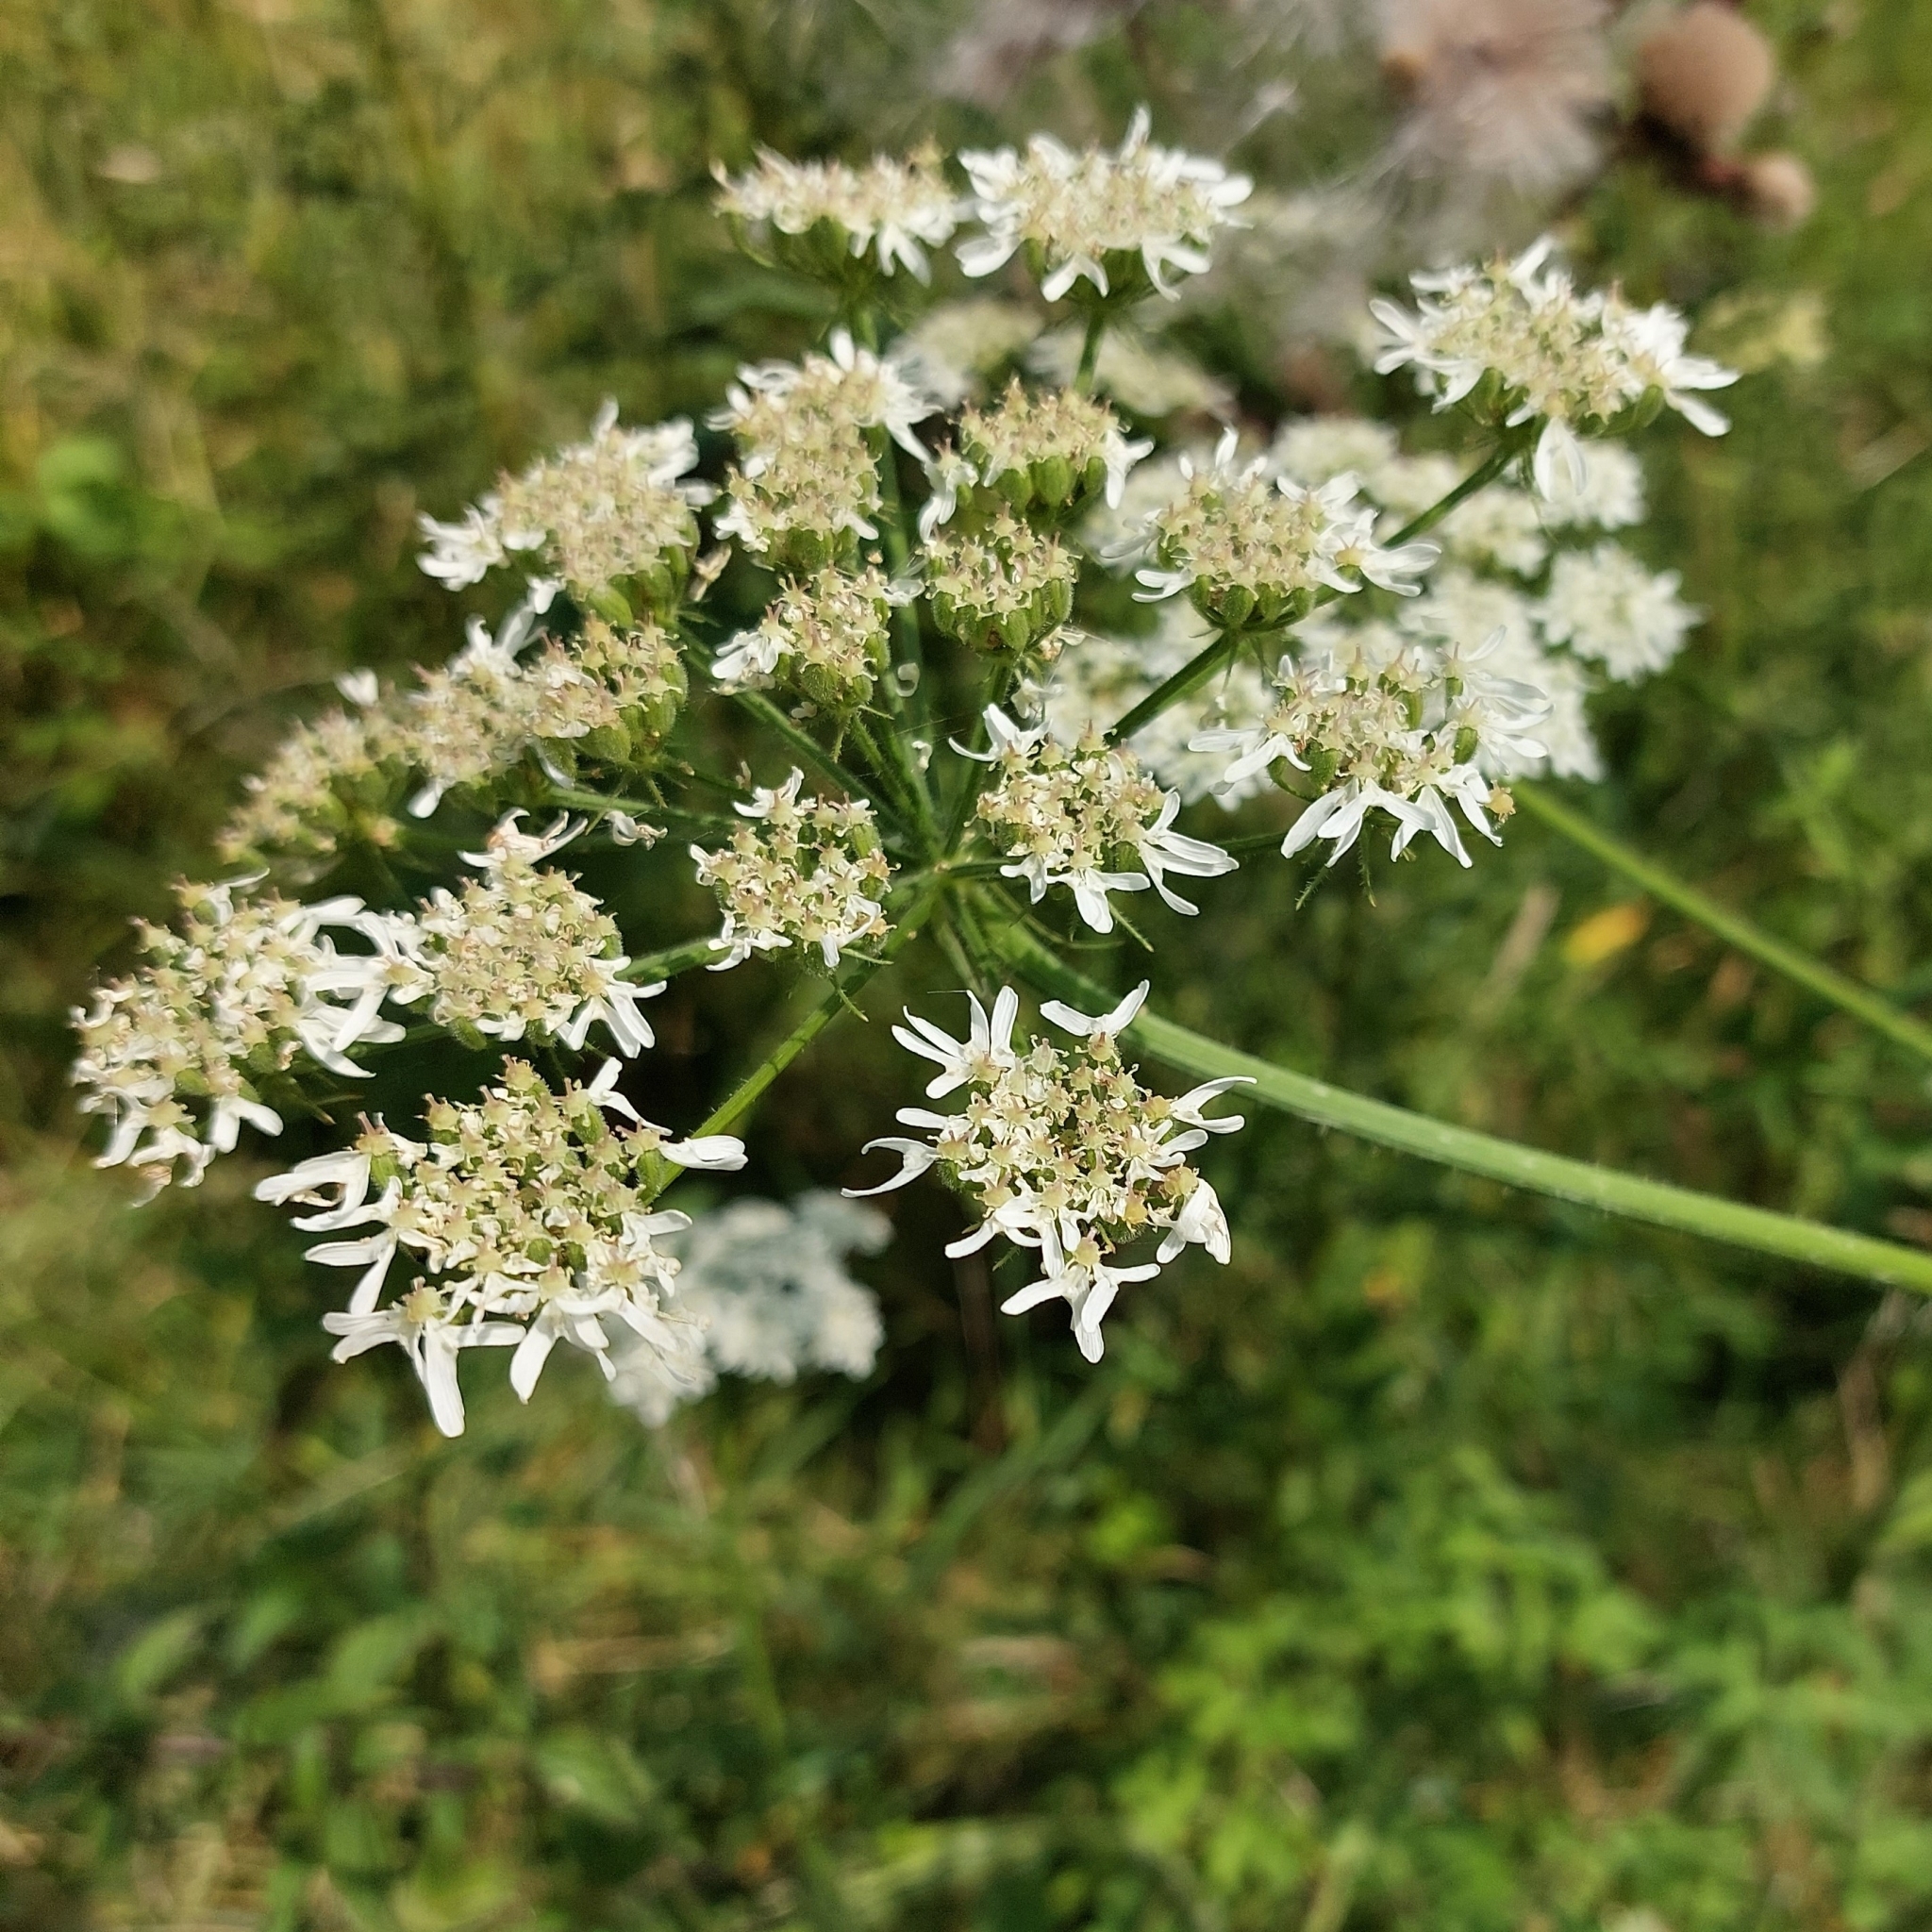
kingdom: Plantae
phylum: Tracheophyta
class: Magnoliopsida
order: Apiales
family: Apiaceae
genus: Heracleum
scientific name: Heracleum sphondylium
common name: Hogweed
